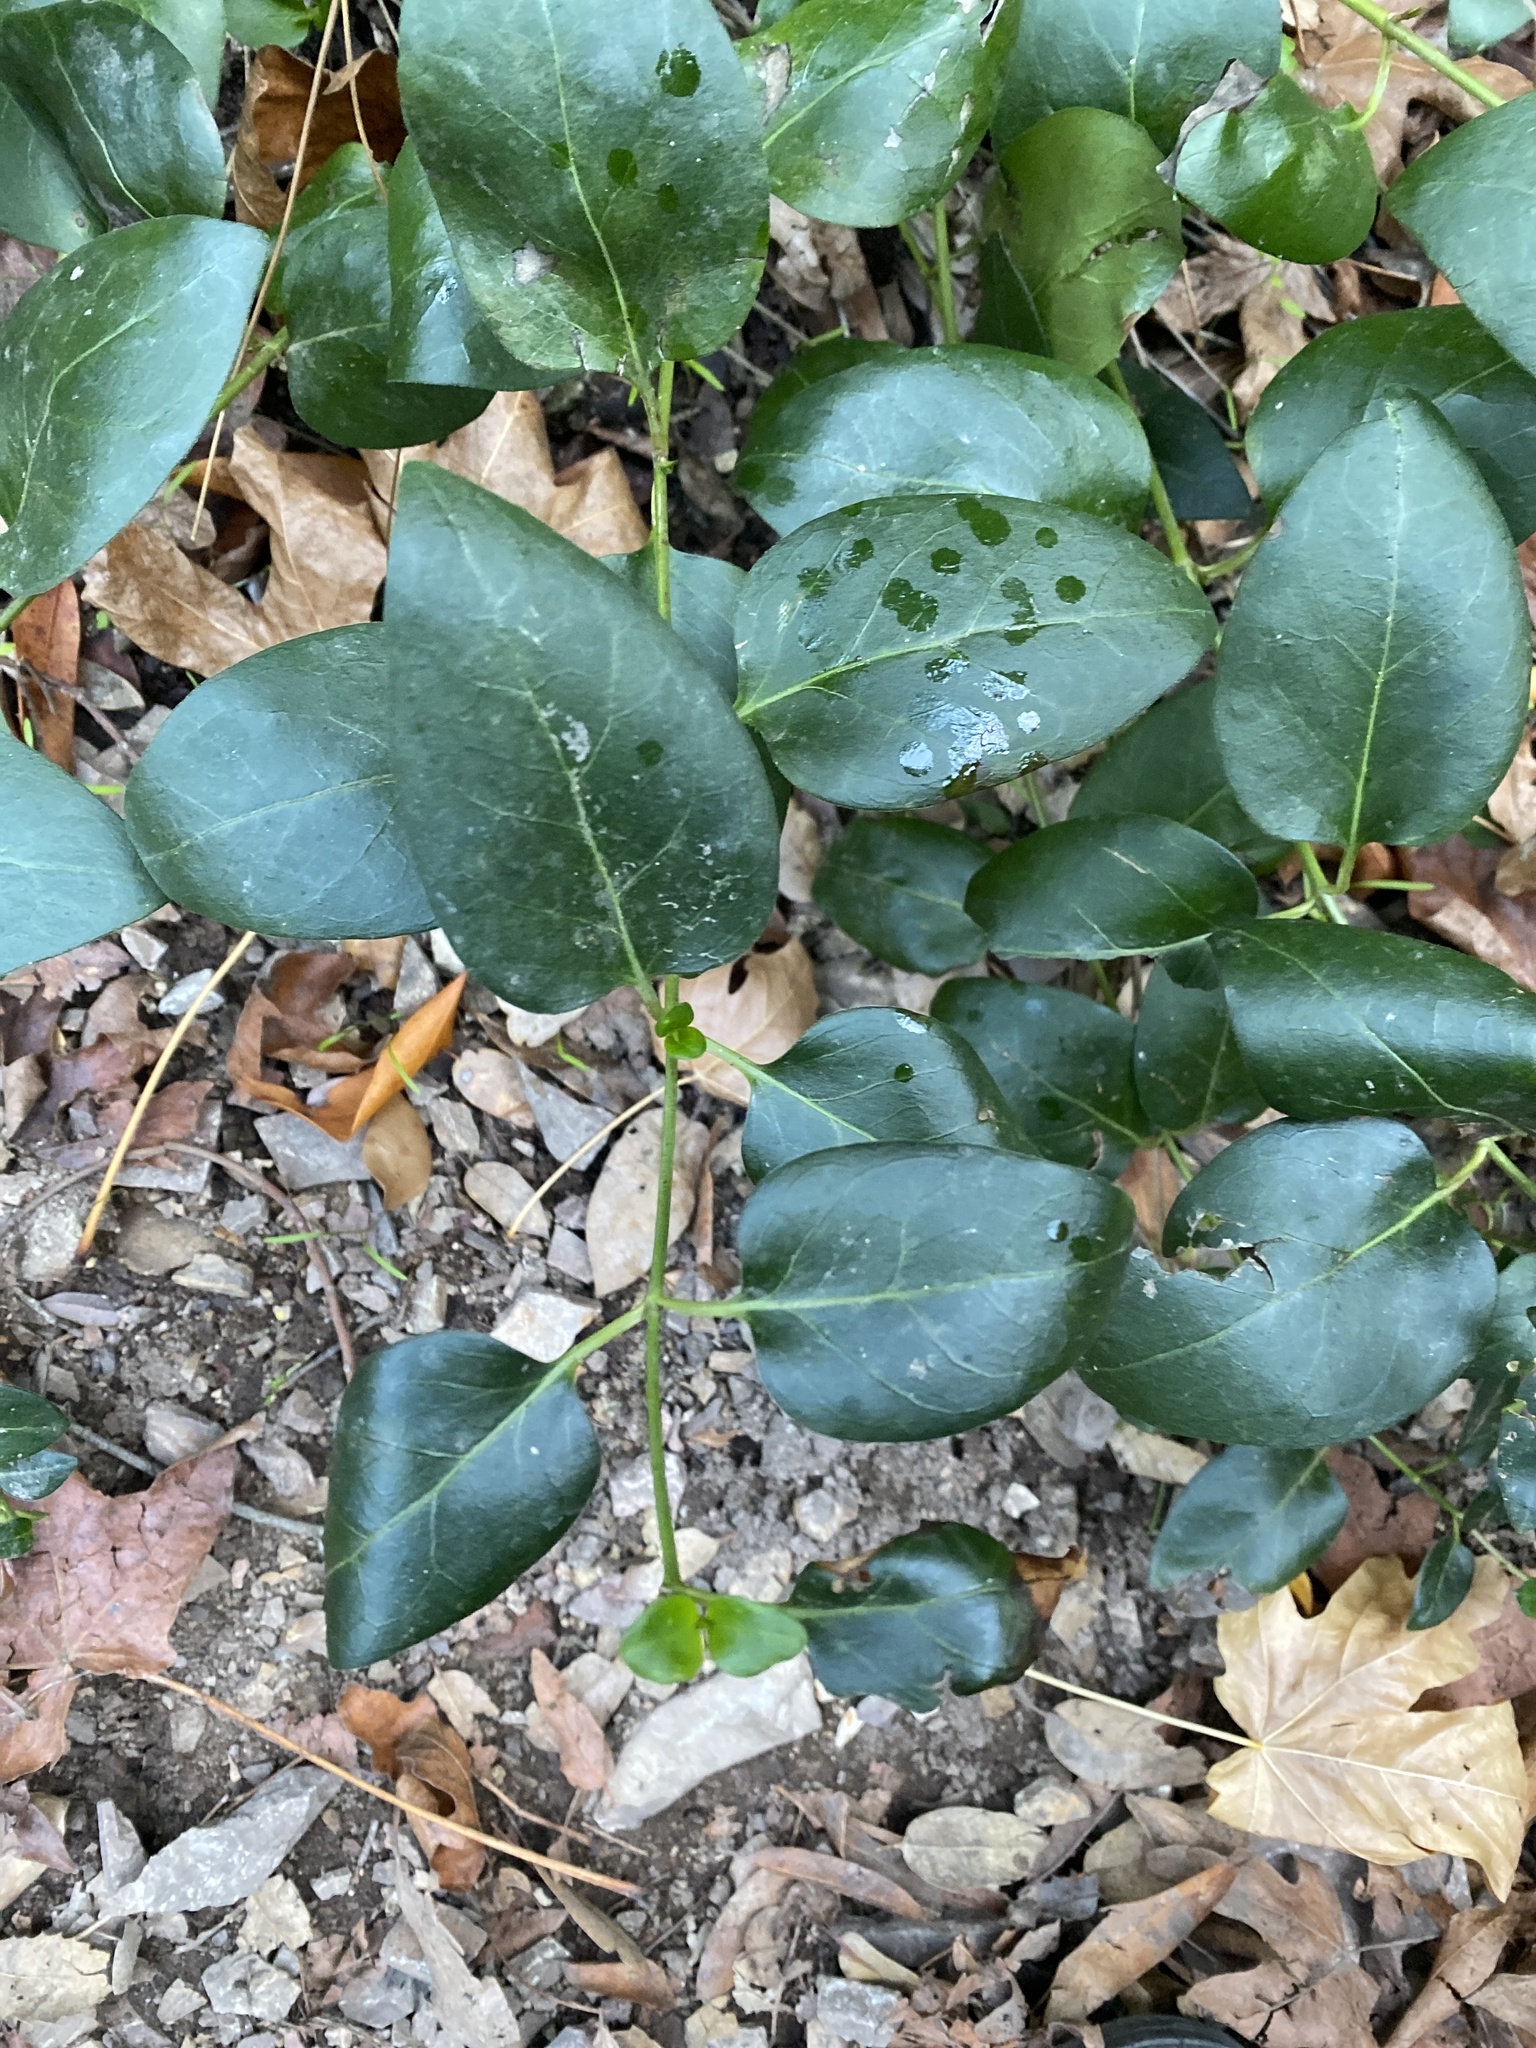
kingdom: Plantae
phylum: Tracheophyta
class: Magnoliopsida
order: Gentianales
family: Apocynaceae
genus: Vinca
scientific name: Vinca major
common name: Greater periwinkle
